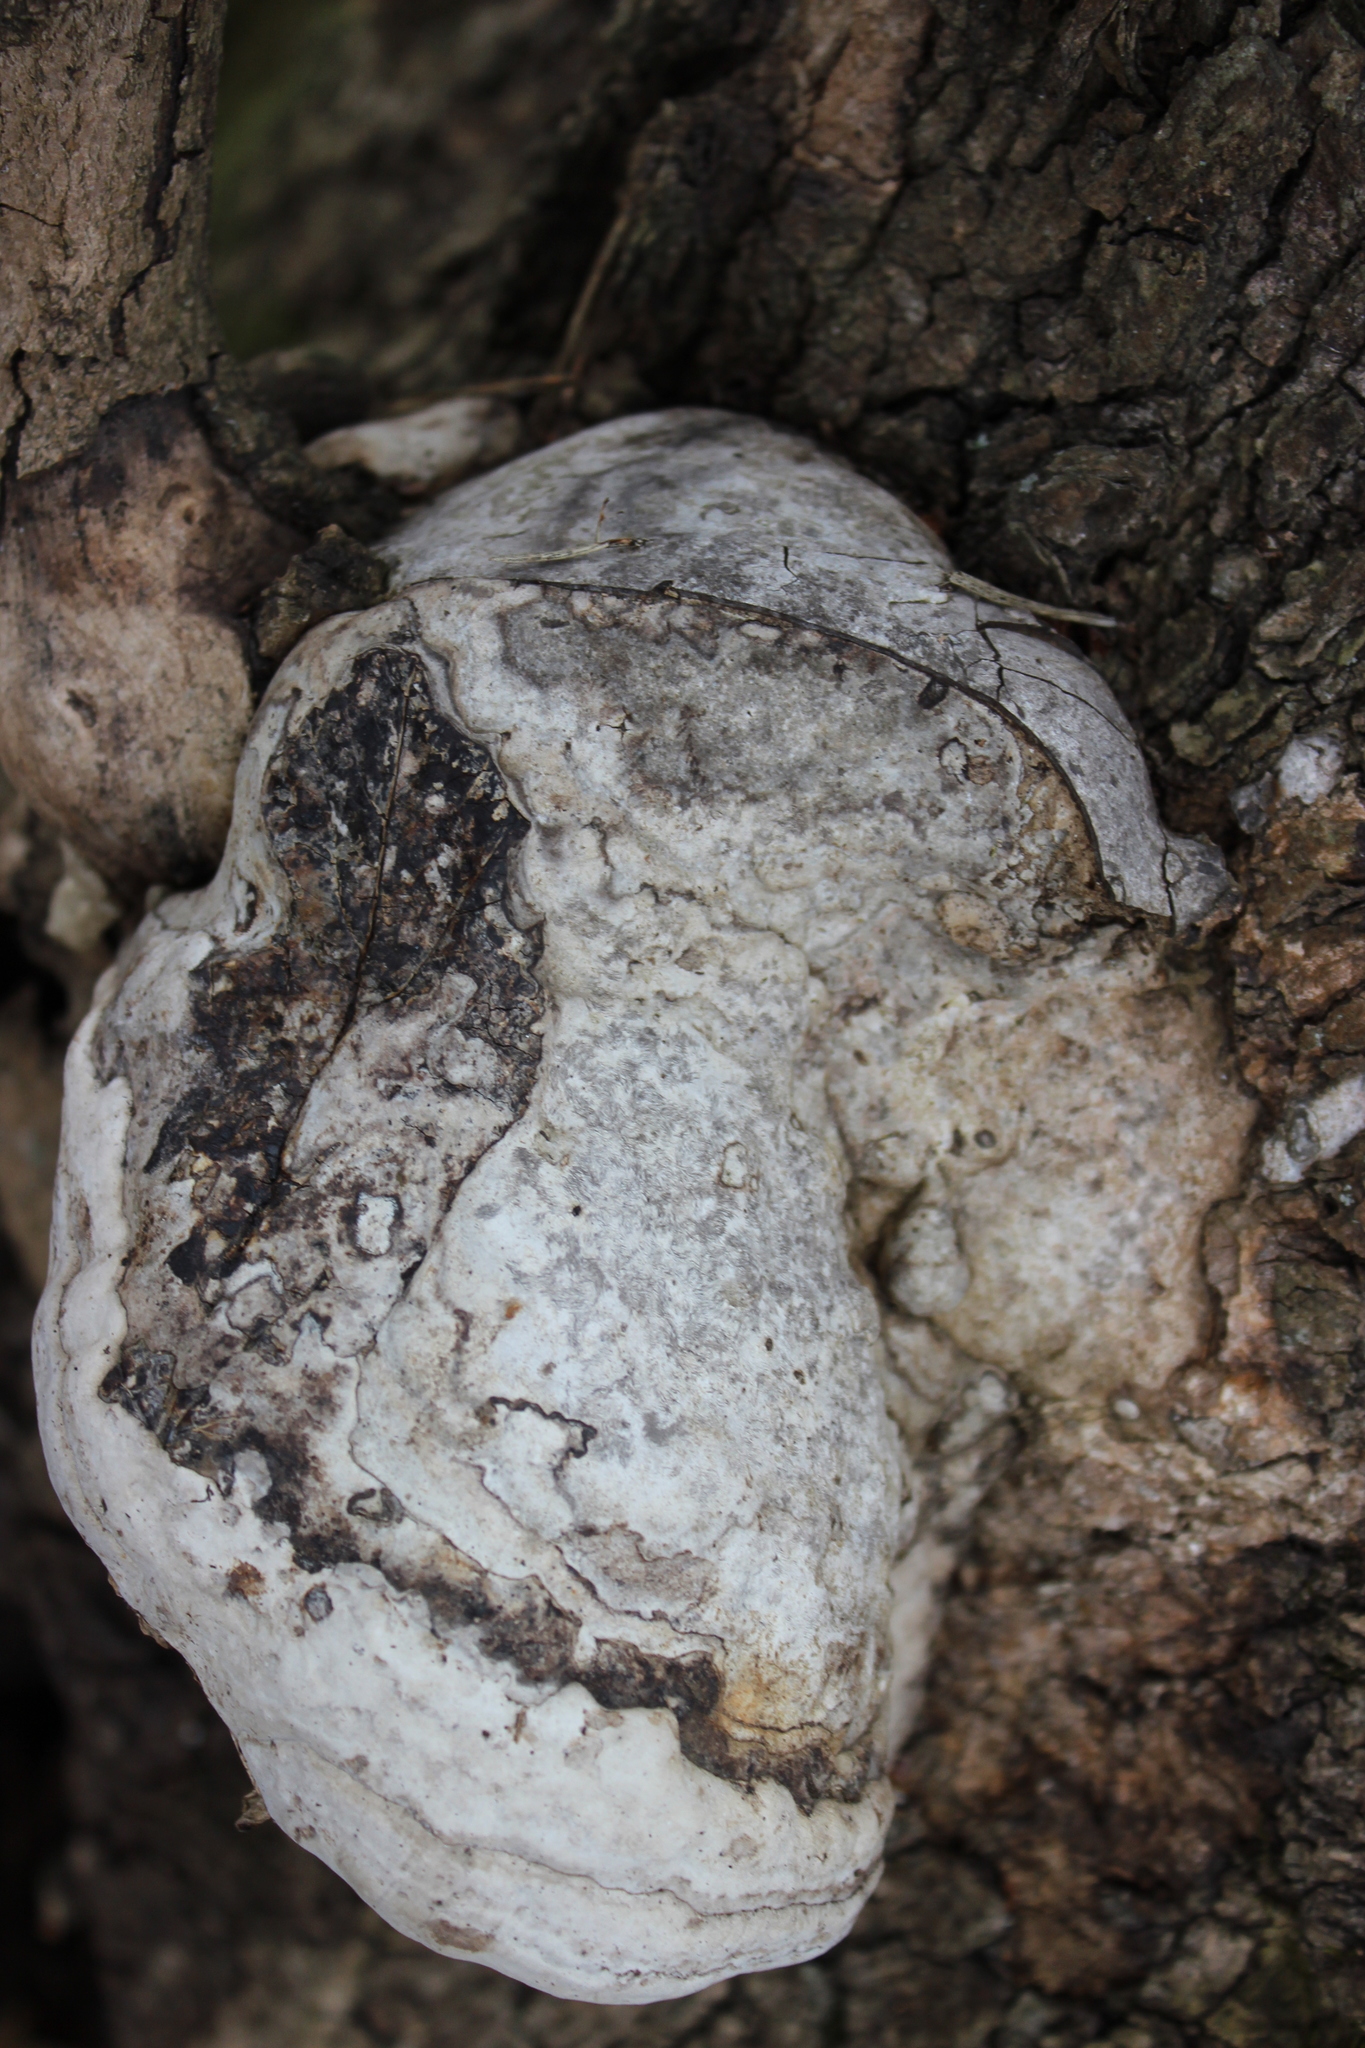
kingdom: Fungi
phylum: Basidiomycota
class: Agaricomycetes
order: Polyporales
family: Polyporaceae
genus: Fomes
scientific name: Fomes fomentarius
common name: Hoof fungus
